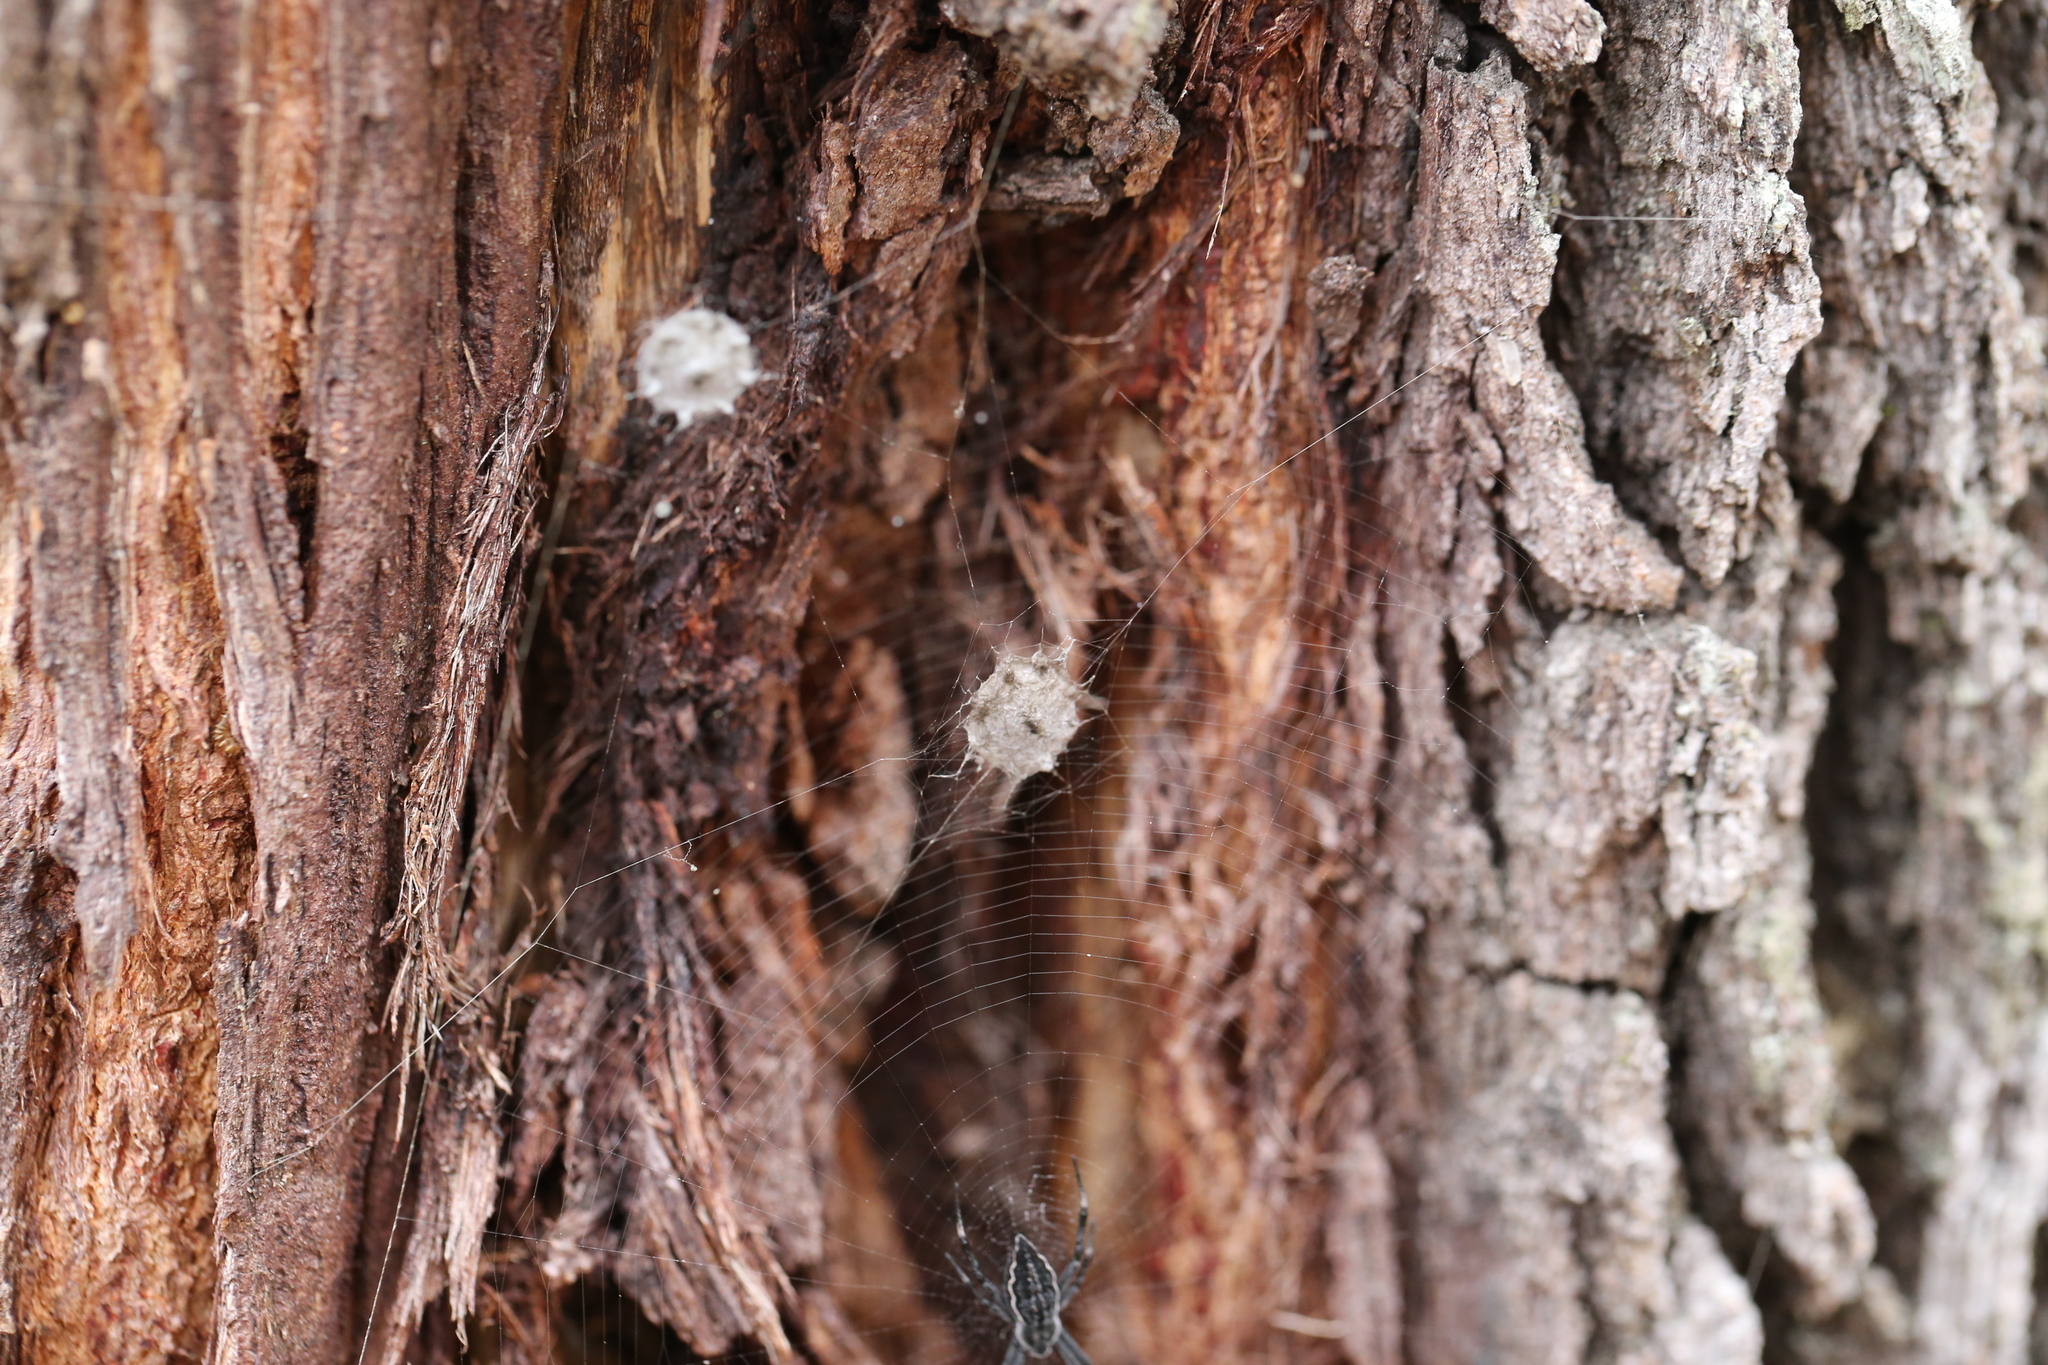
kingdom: Animalia
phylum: Arthropoda
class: Arachnida
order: Araneae
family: Araneidae
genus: Argiope
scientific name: Argiope ocyaloides
